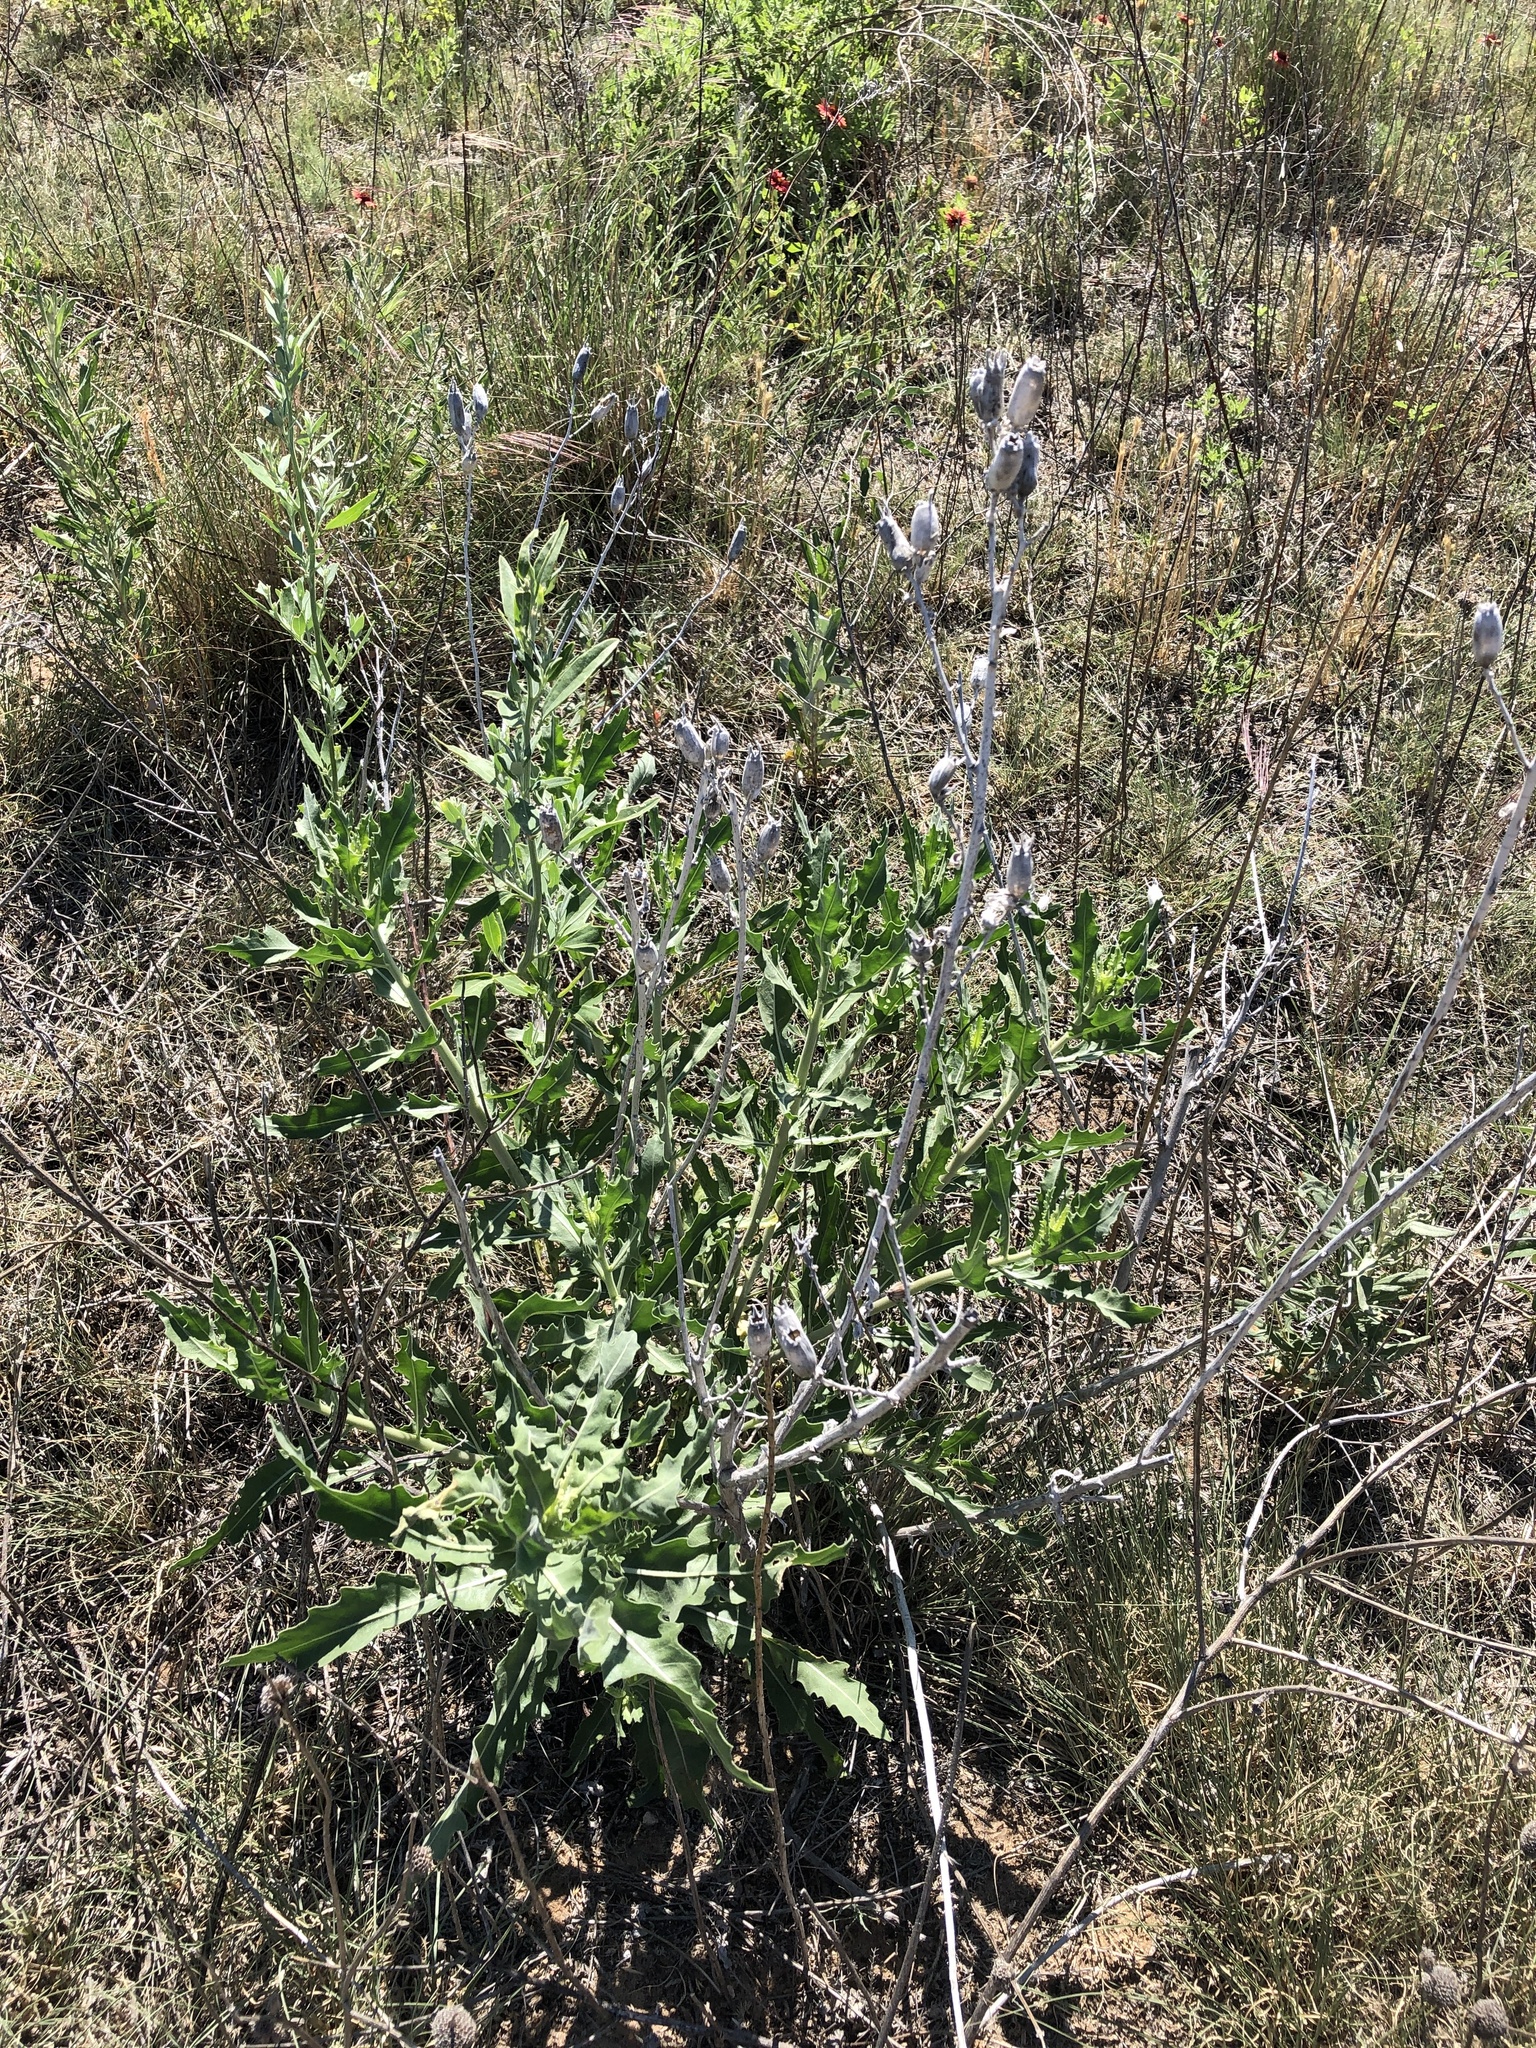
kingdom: Plantae
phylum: Tracheophyta
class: Magnoliopsida
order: Cornales
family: Loasaceae
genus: Mentzelia
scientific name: Mentzelia nuda
